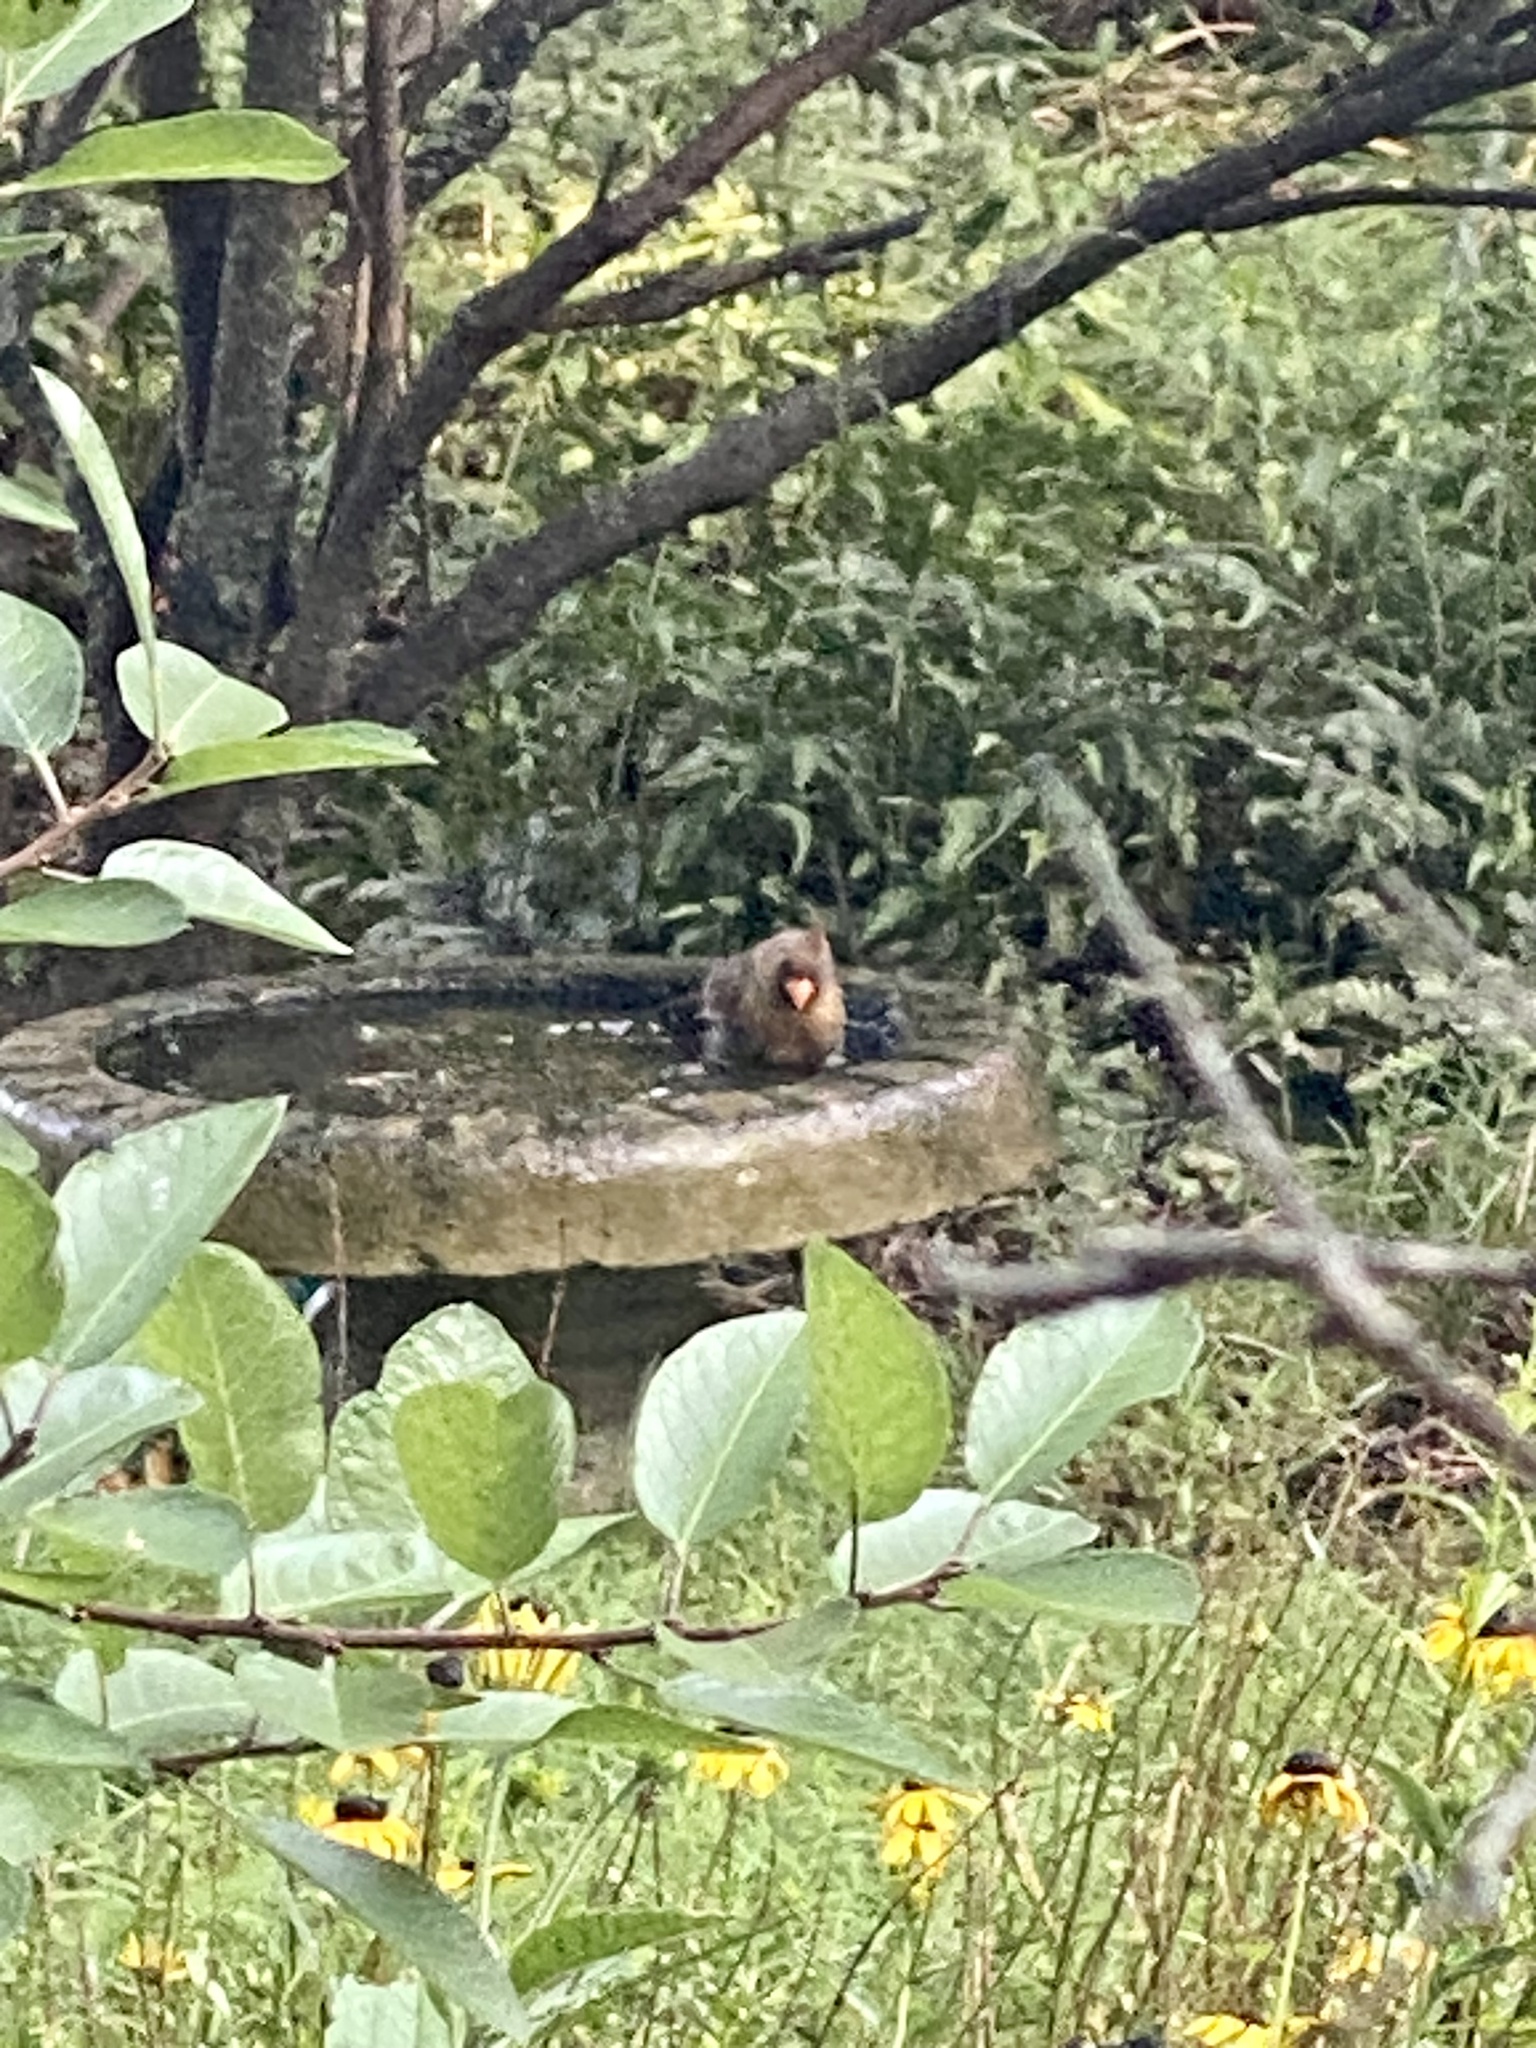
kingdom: Animalia
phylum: Chordata
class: Aves
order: Passeriformes
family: Cardinalidae
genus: Cardinalis
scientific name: Cardinalis cardinalis
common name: Northern cardinal
